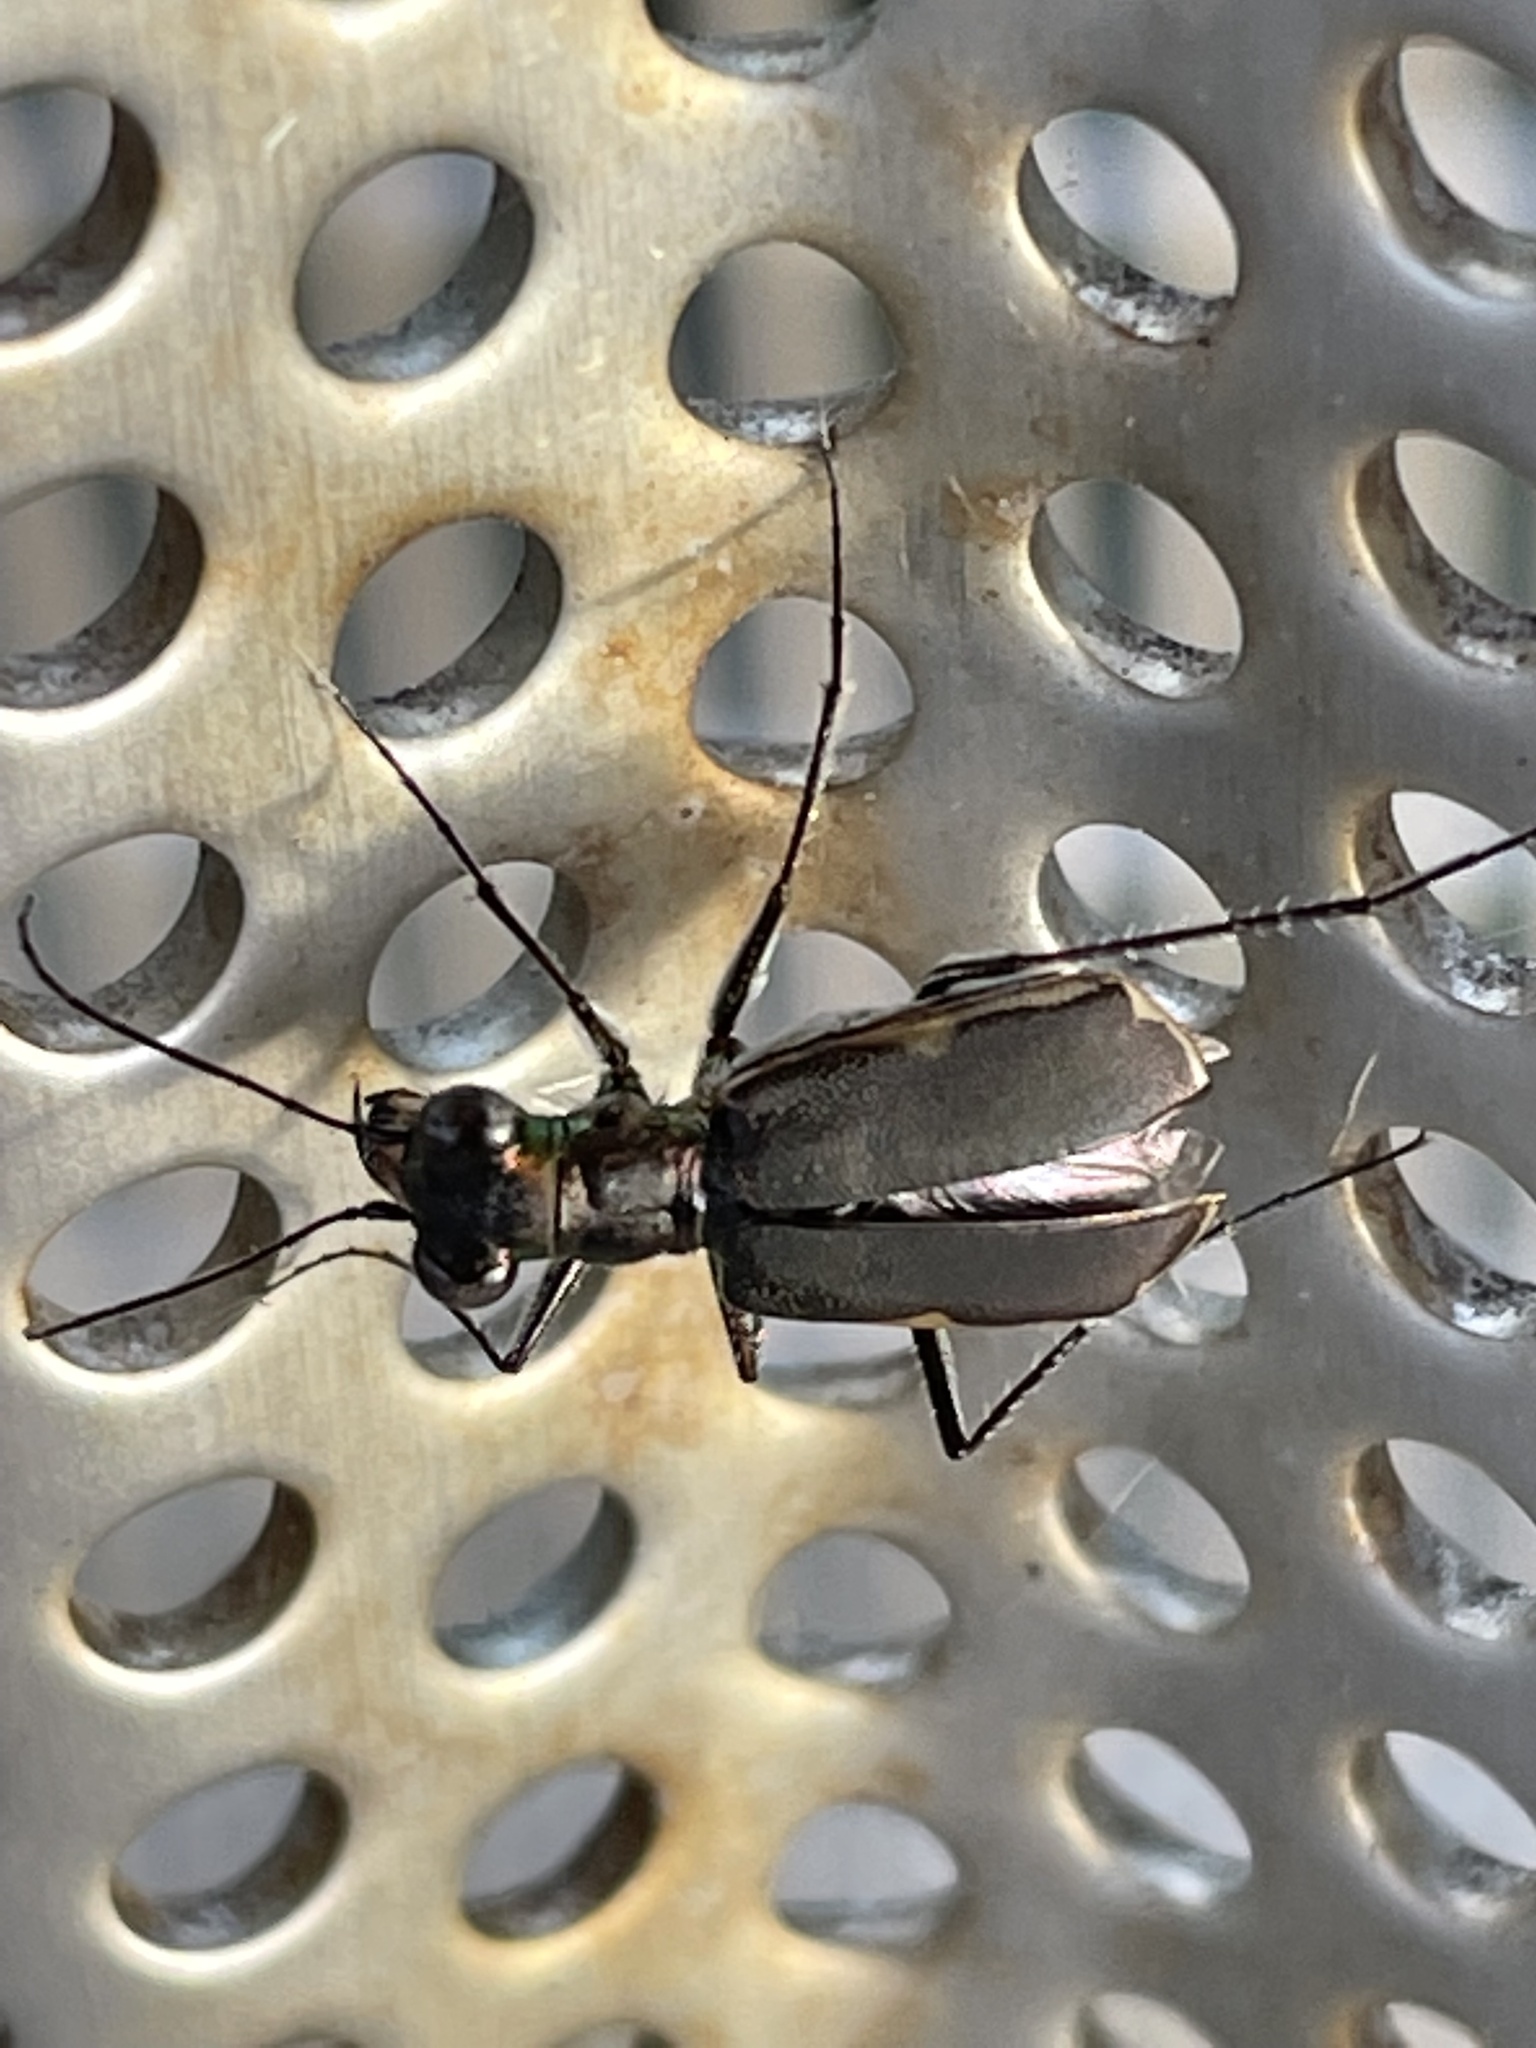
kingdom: Animalia
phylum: Arthropoda
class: Insecta
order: Coleoptera
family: Carabidae
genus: Myriochila
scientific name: Myriochila semicincta
